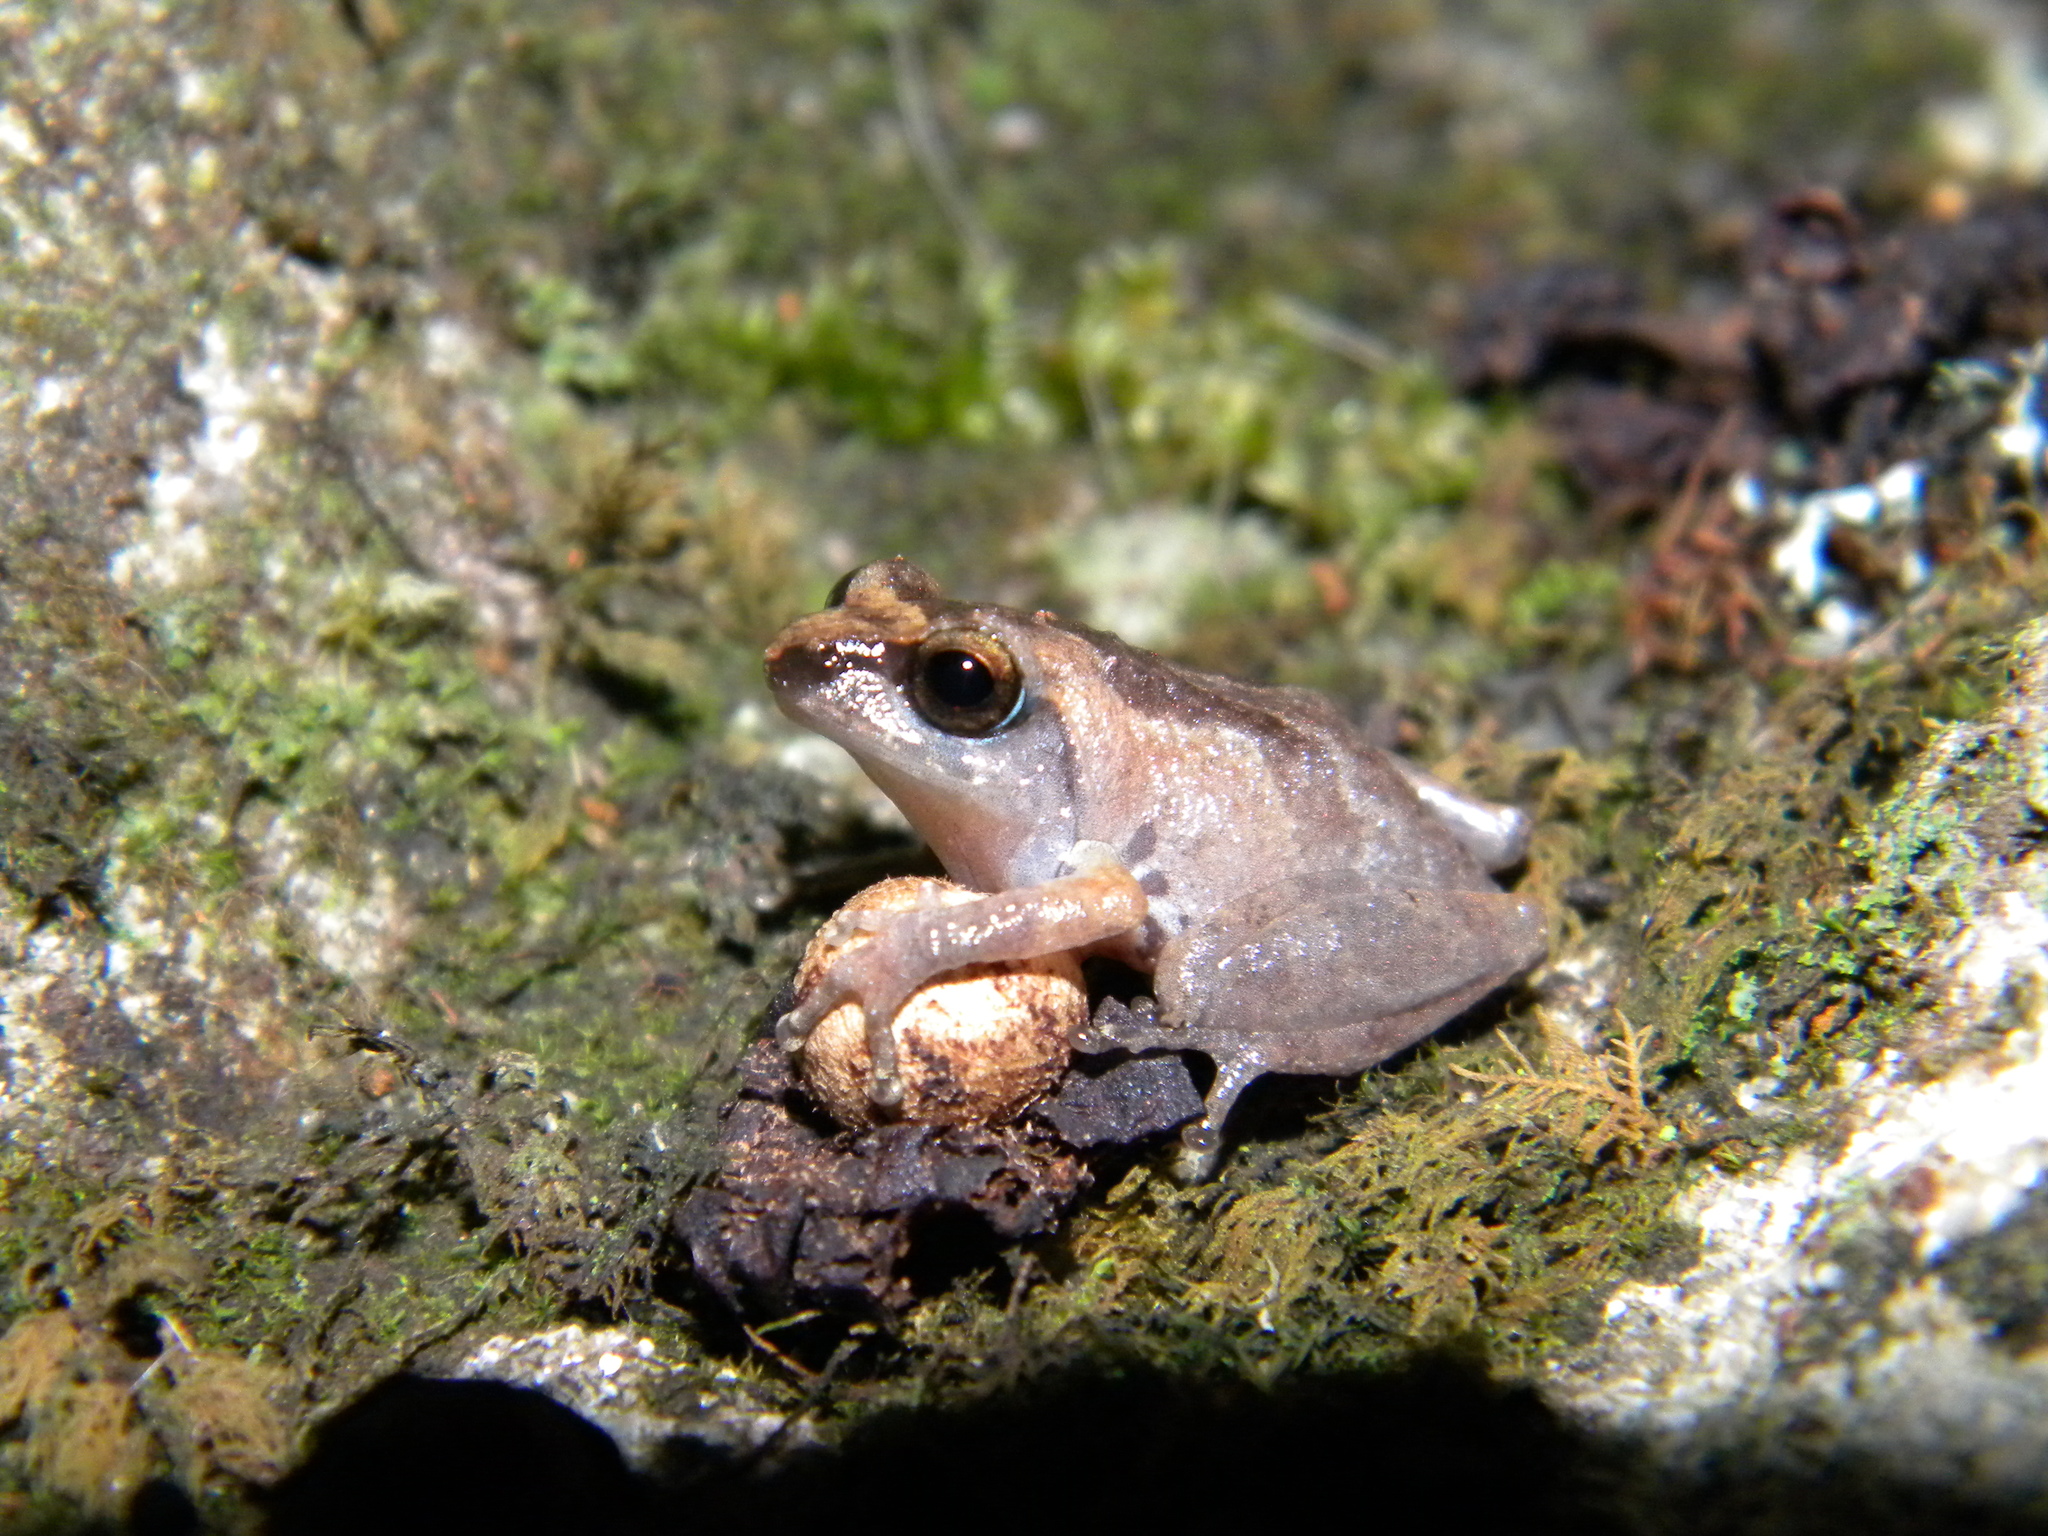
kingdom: Animalia
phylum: Chordata
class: Amphibia
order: Anura
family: Rhacophoridae
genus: Raorchestes
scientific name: Raorchestes agasthyaensis
